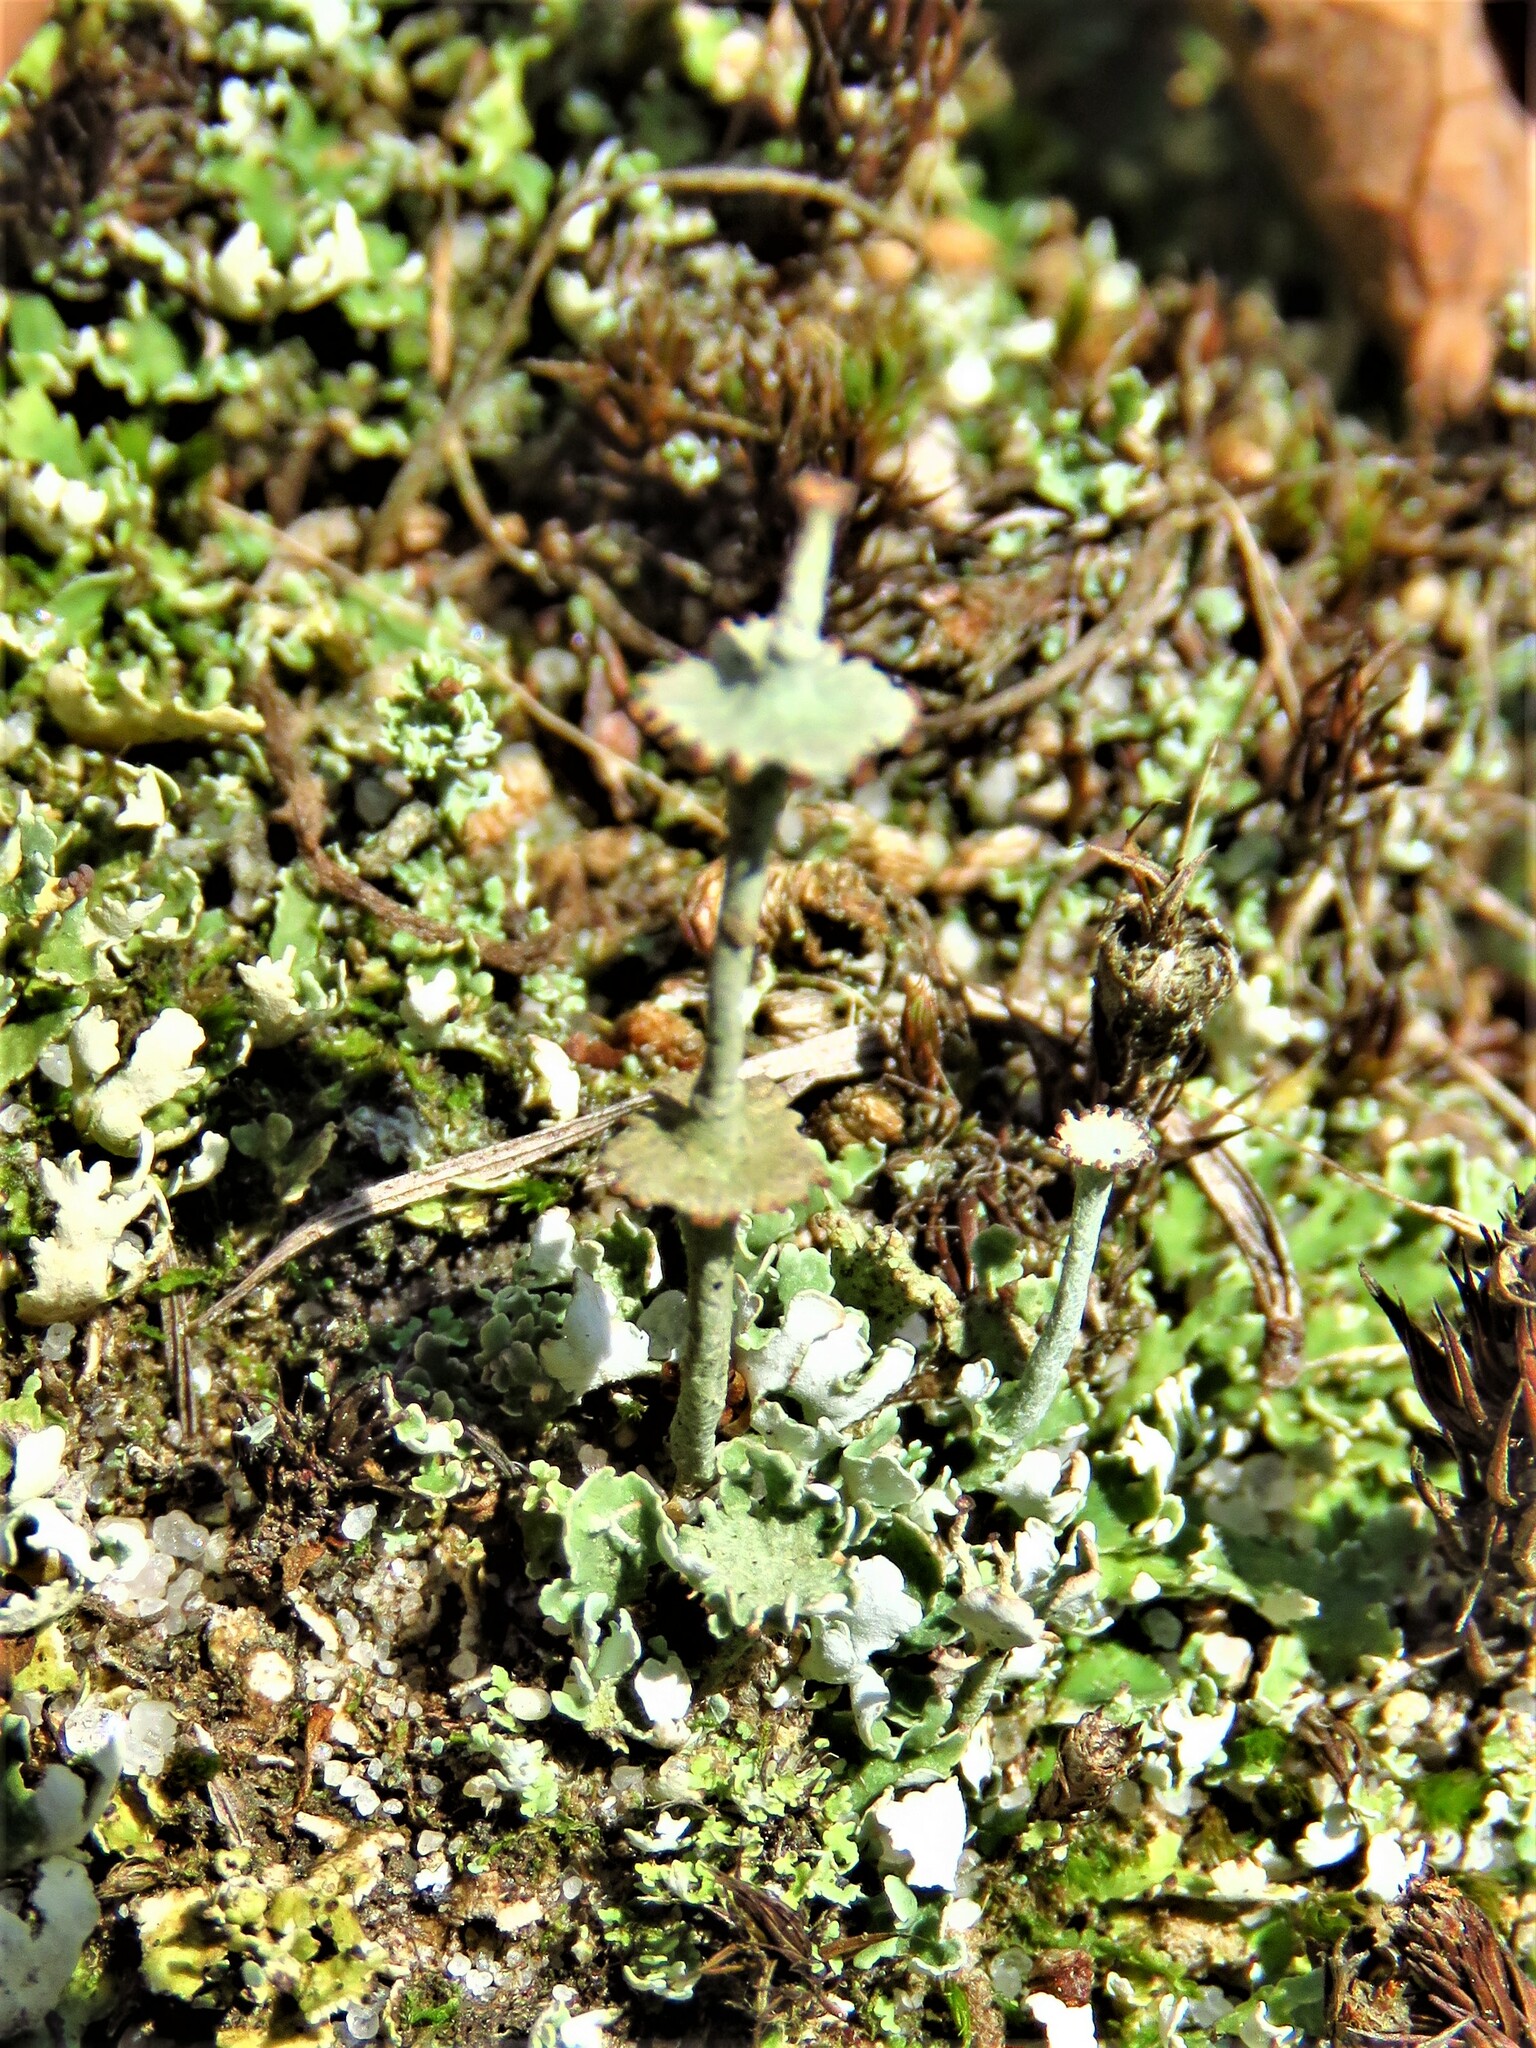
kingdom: Fungi
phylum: Ascomycota
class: Lecanoromycetes
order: Lecanorales
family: Cladoniaceae
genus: Cladonia
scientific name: Cladonia rappii
